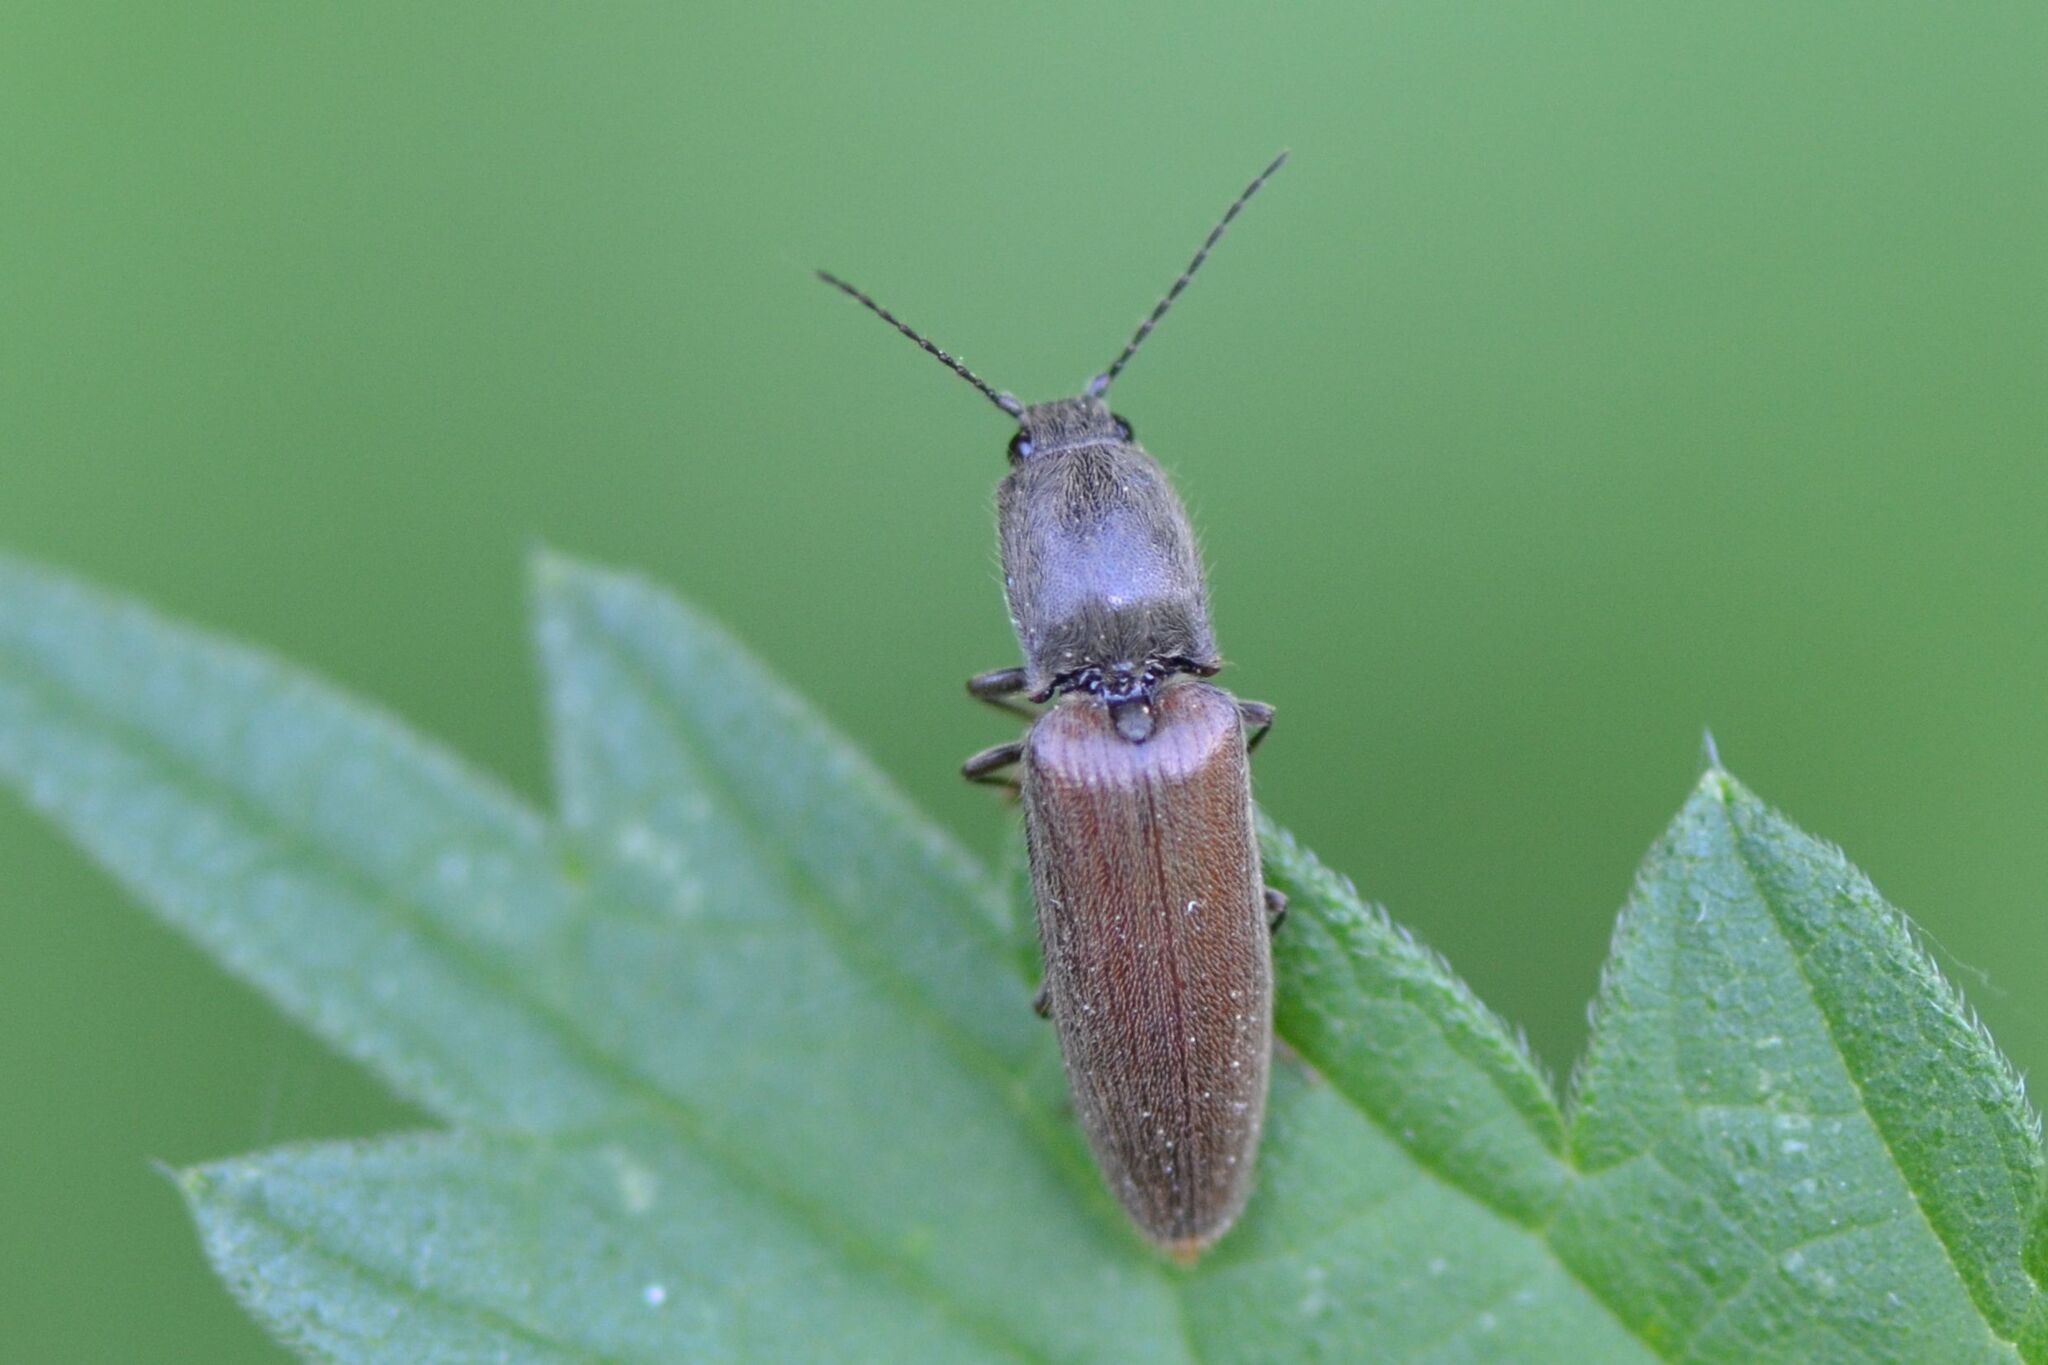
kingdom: Animalia
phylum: Arthropoda
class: Insecta
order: Coleoptera
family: Elateridae
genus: Athous
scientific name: Athous haemorrhoidalis
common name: Red-brown click beetle
